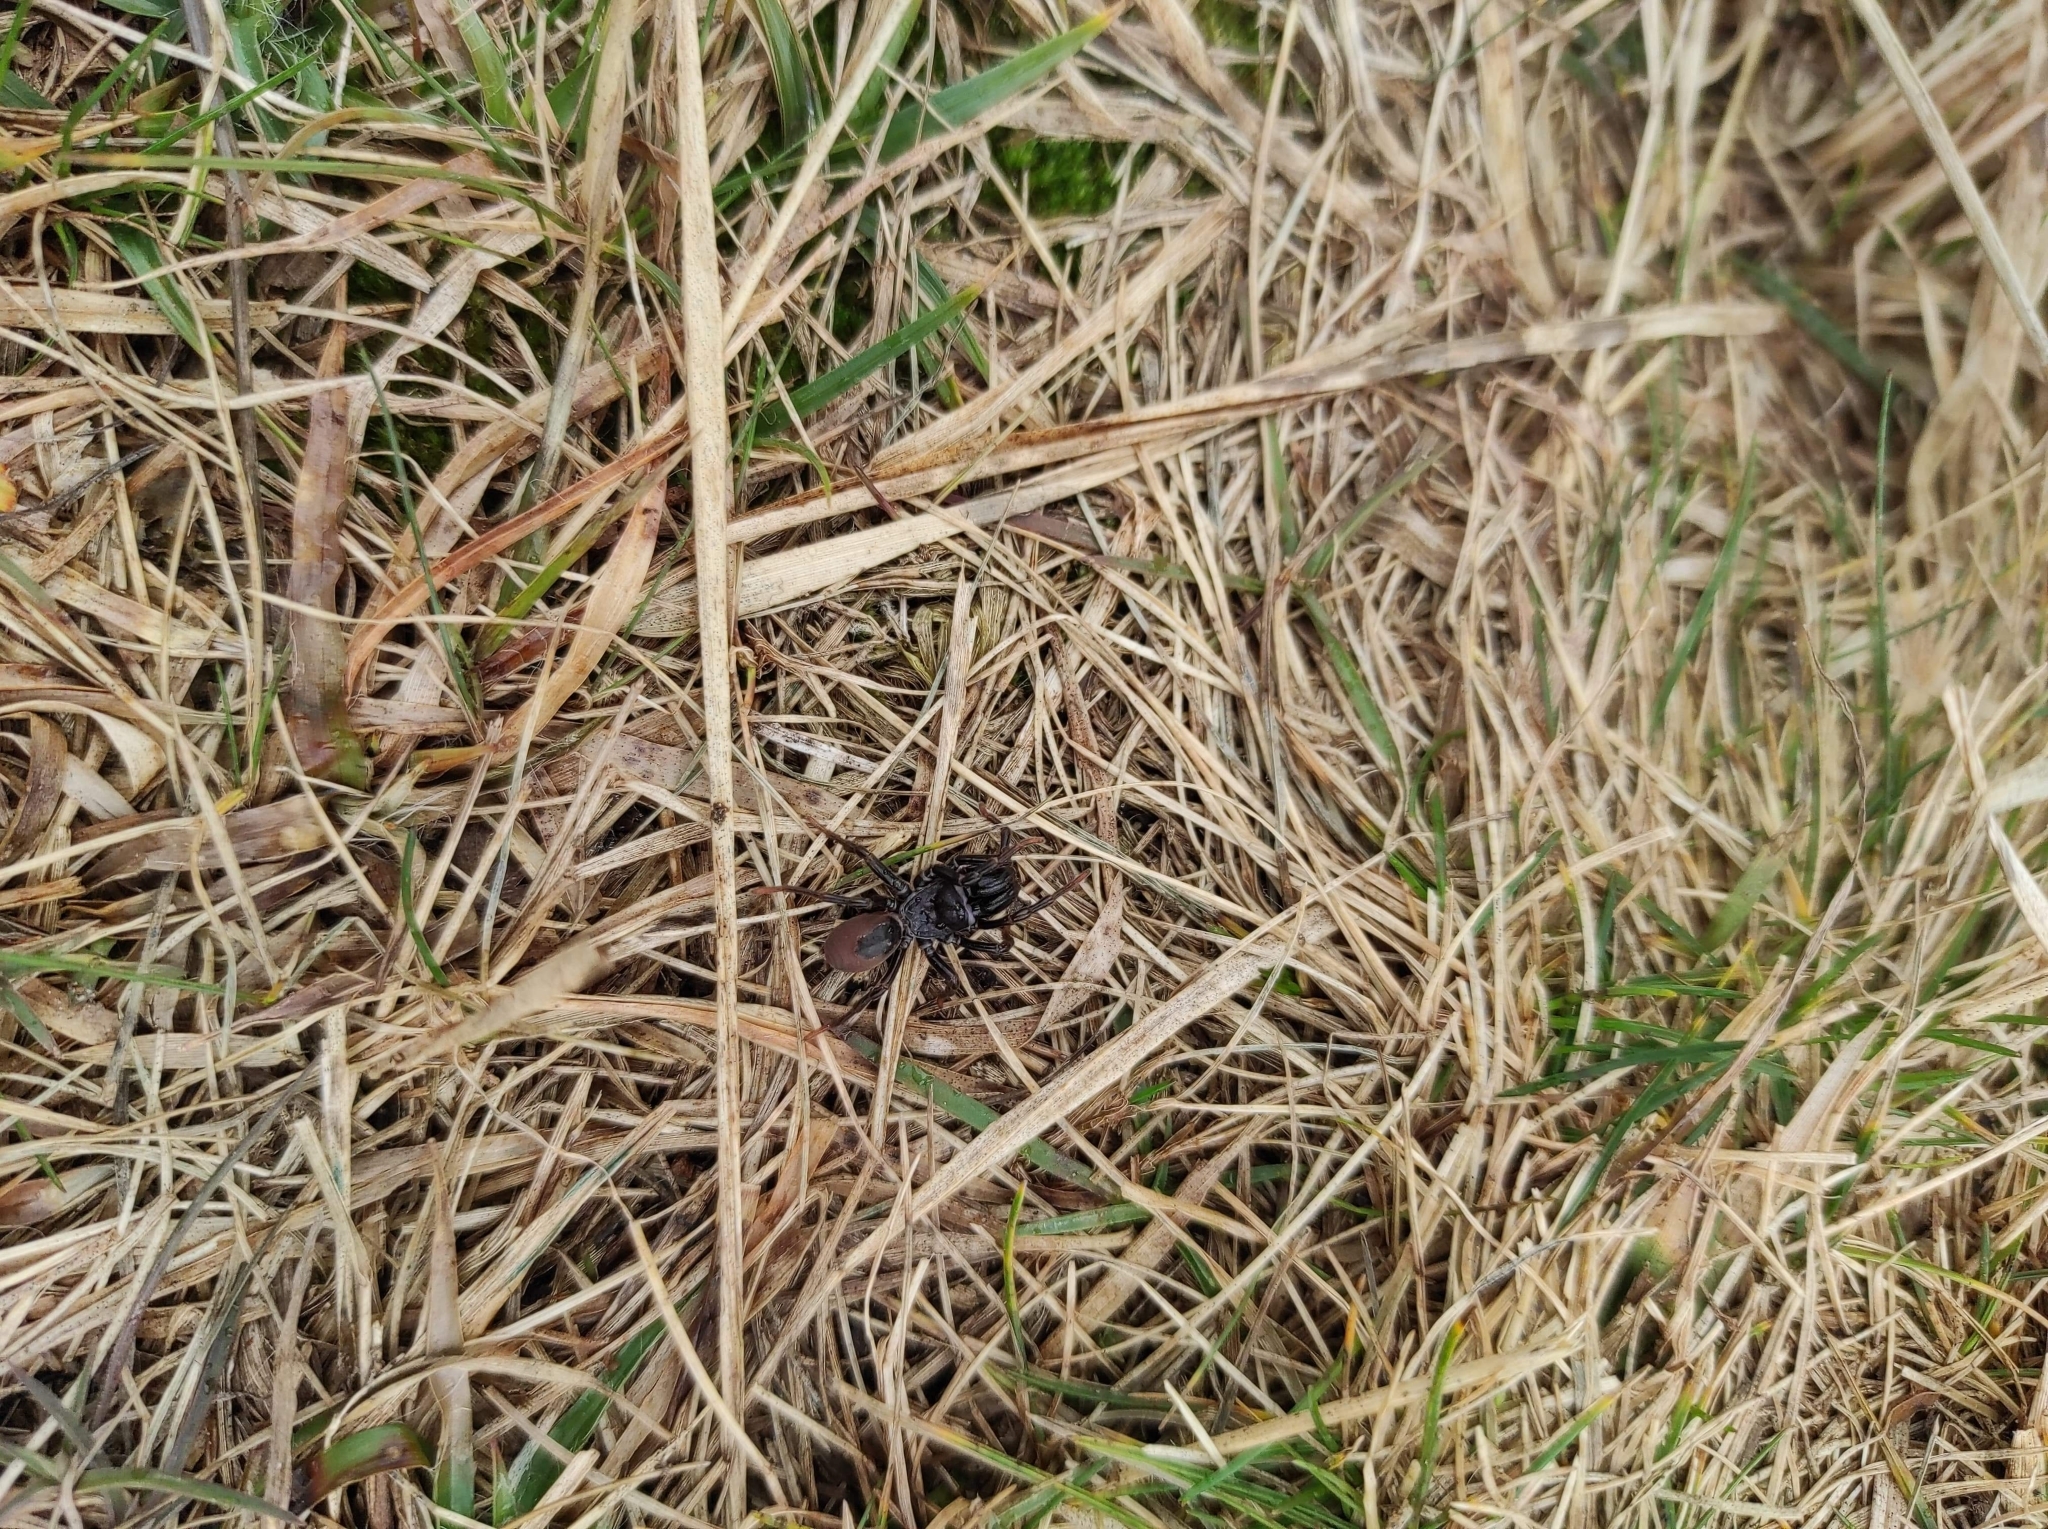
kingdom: Animalia
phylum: Arthropoda
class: Arachnida
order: Araneae
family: Atypidae
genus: Atypus
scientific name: Atypus
